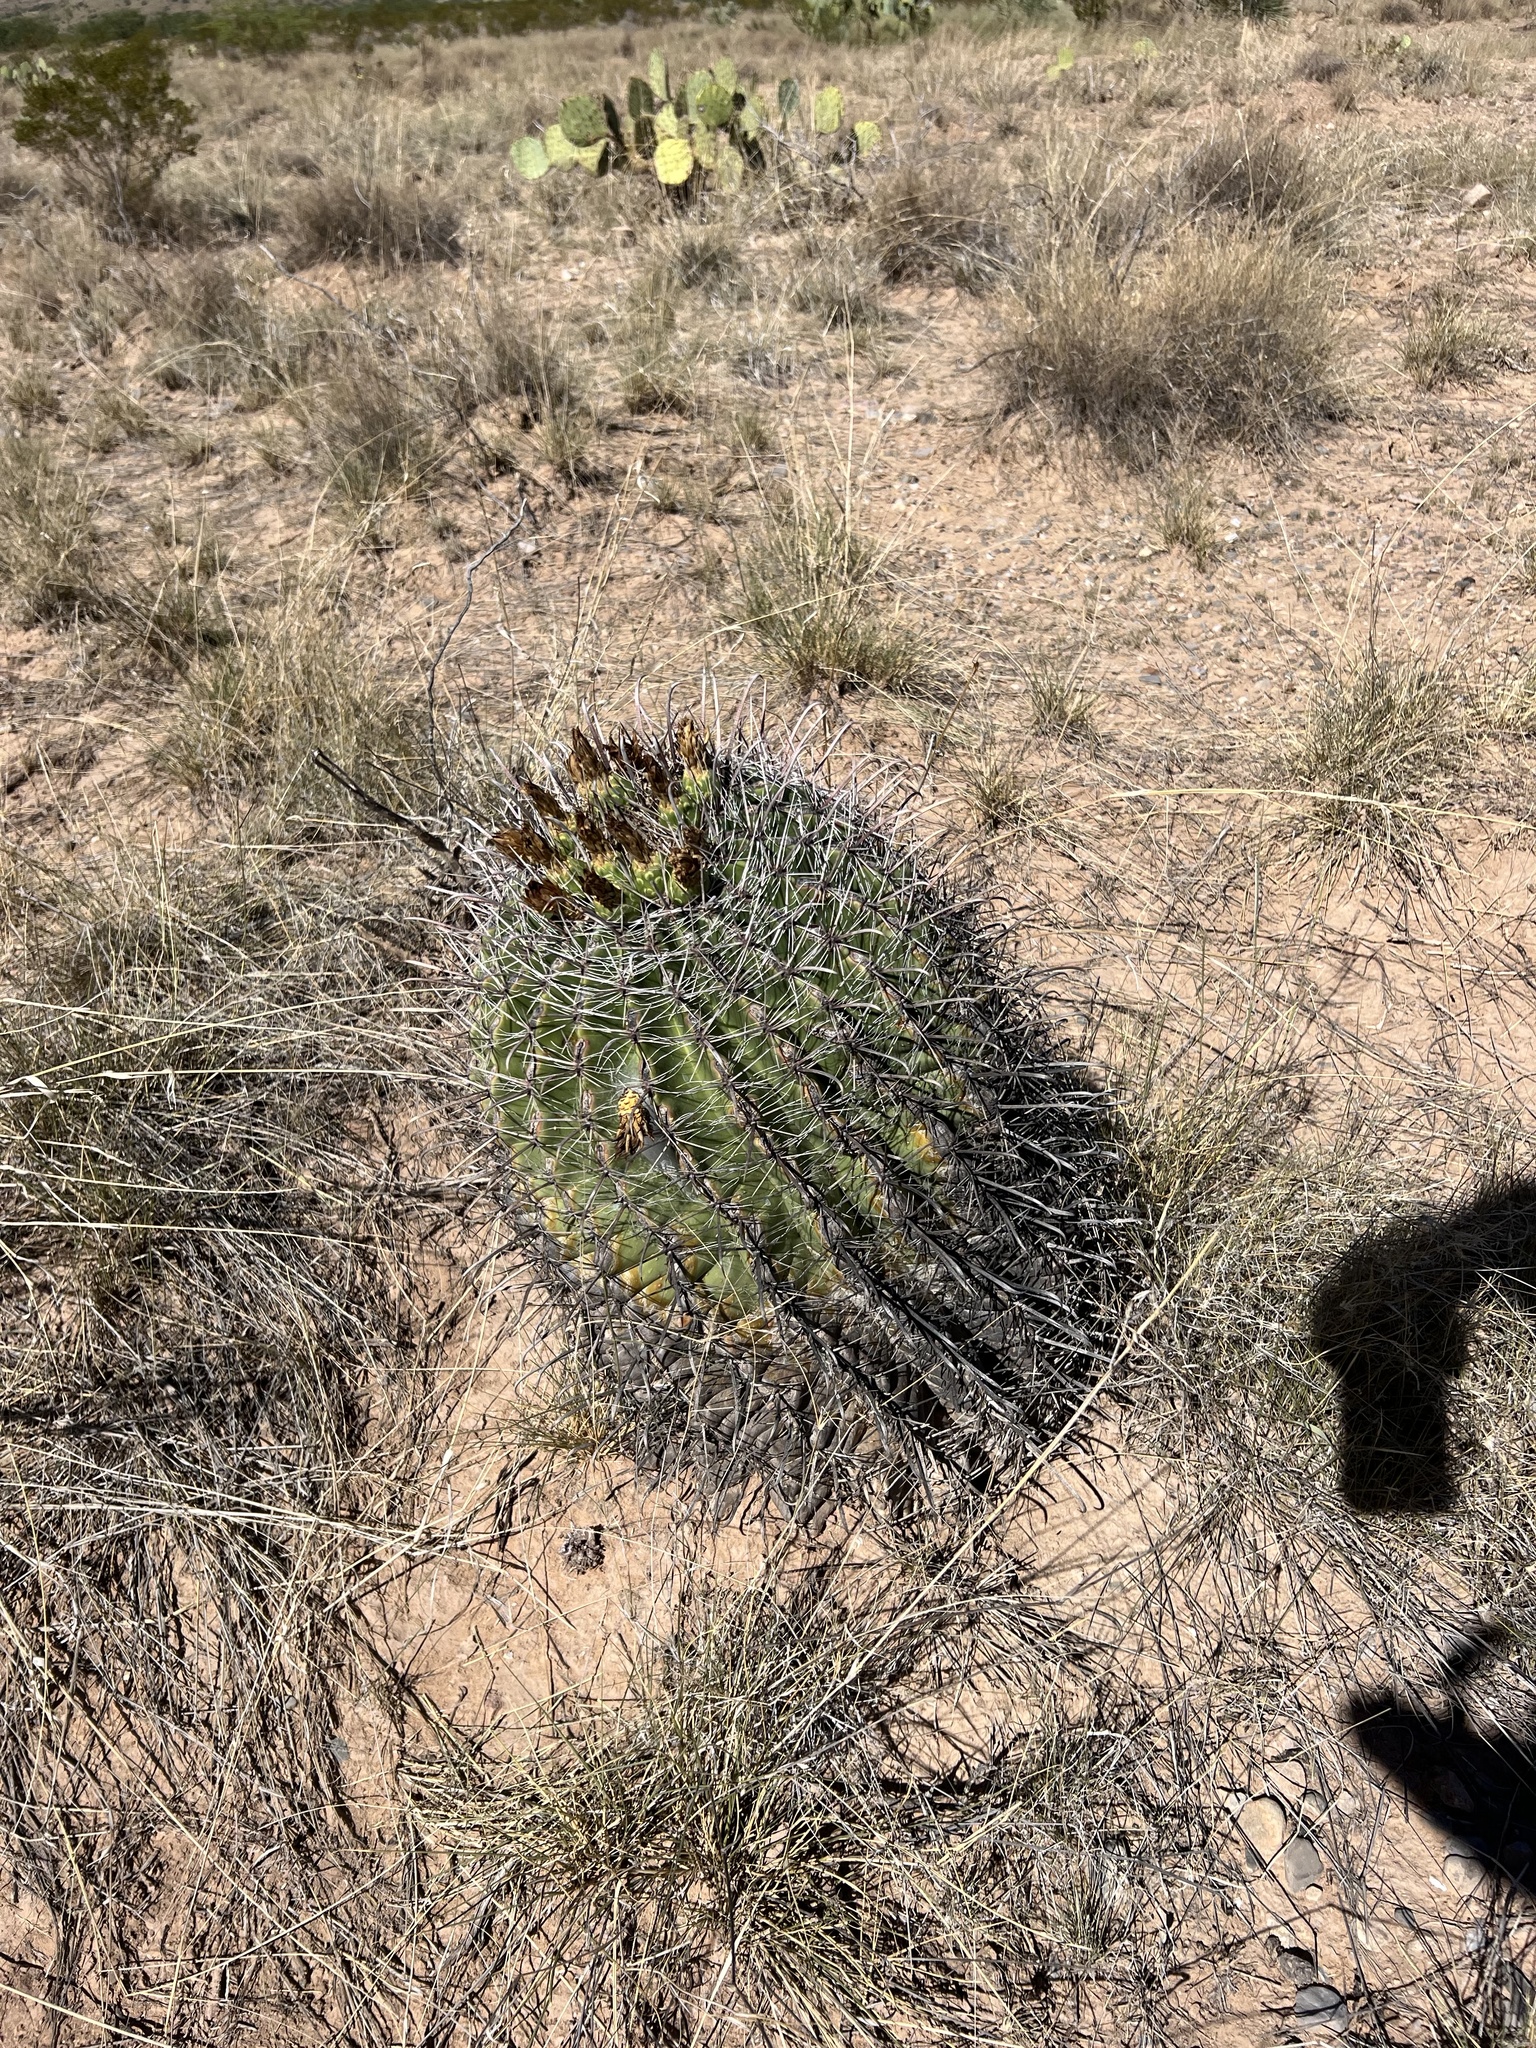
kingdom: Plantae
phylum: Tracheophyta
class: Magnoliopsida
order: Caryophyllales
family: Cactaceae
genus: Ferocactus
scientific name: Ferocactus wislizeni
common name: Candy barrel cactus
